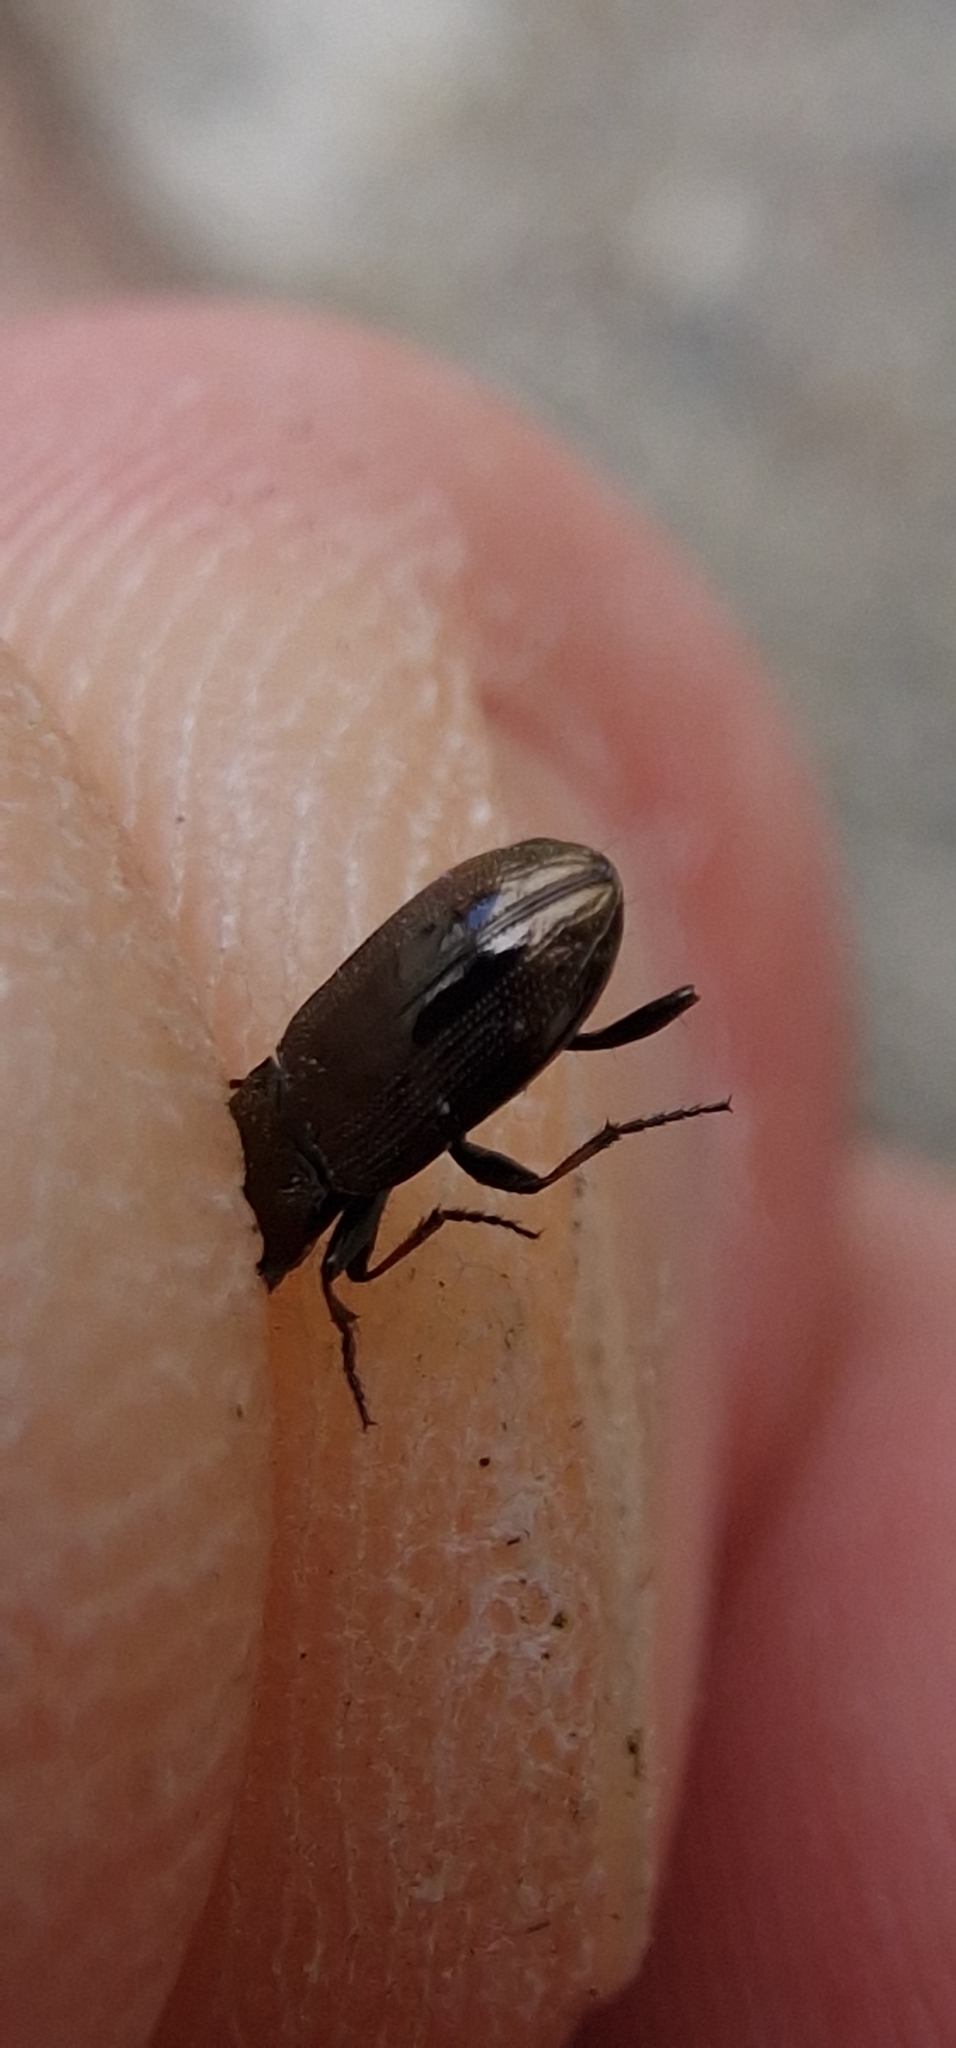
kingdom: Animalia
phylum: Arthropoda
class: Insecta
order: Coleoptera
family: Carabidae
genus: Notiophilus
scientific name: Notiophilus biguttatus
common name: Spotted gazelle beetle
